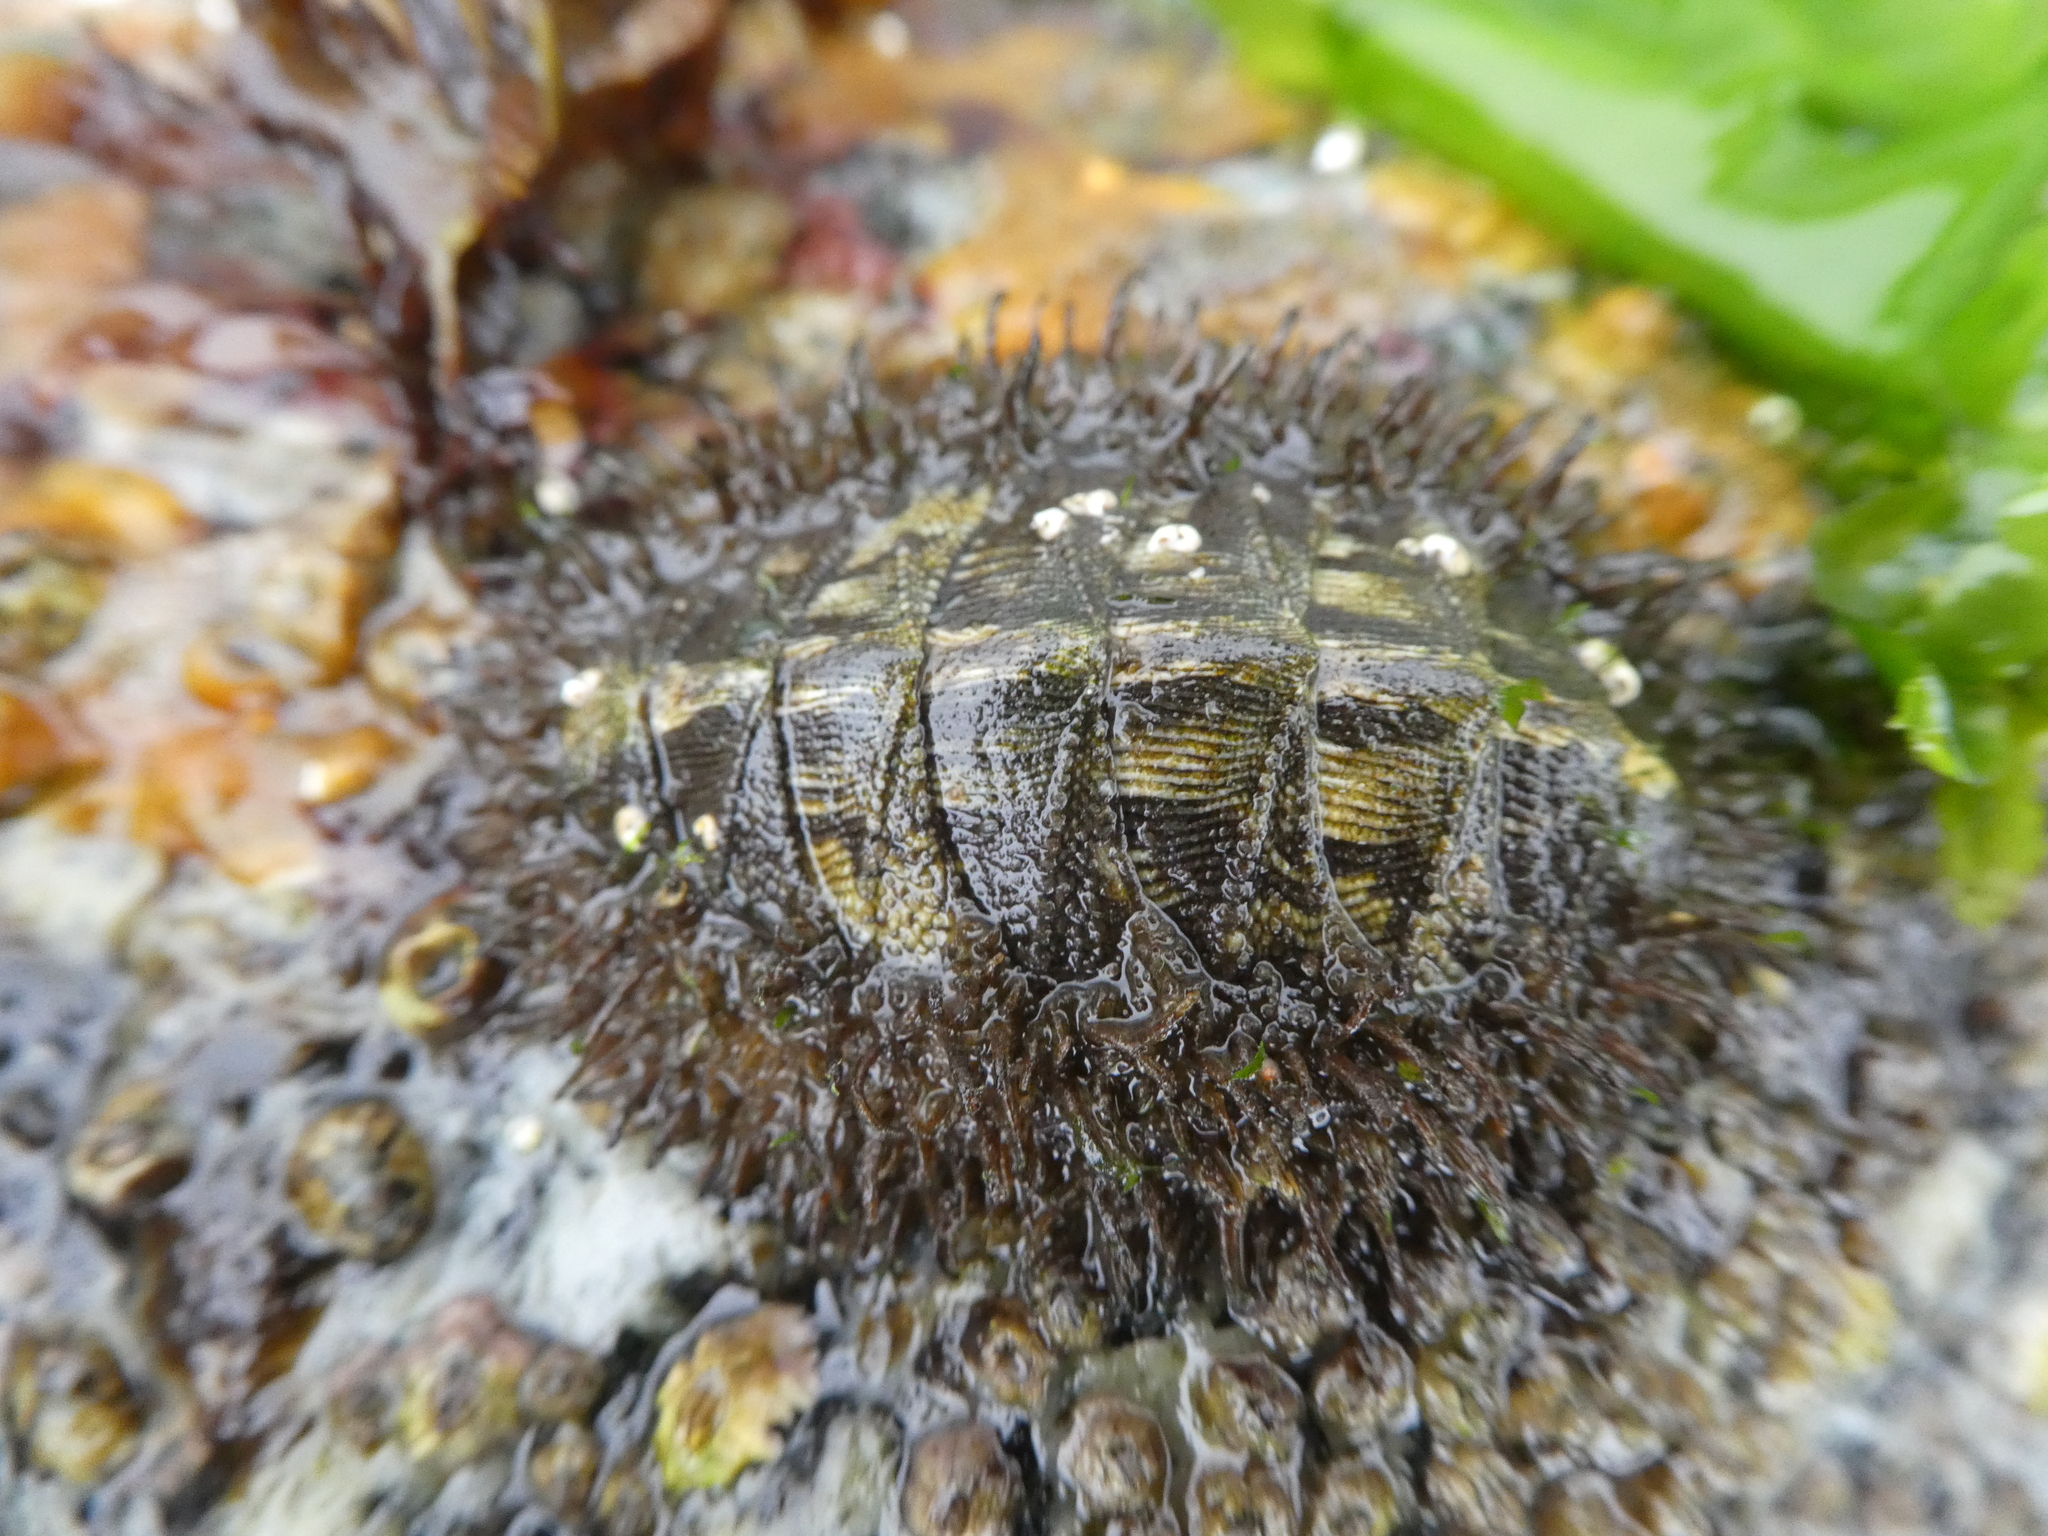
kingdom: Animalia
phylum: Mollusca
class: Polyplacophora
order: Chitonida
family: Mopaliidae
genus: Mopalia
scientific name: Mopalia muscosa
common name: Mossy chiton
